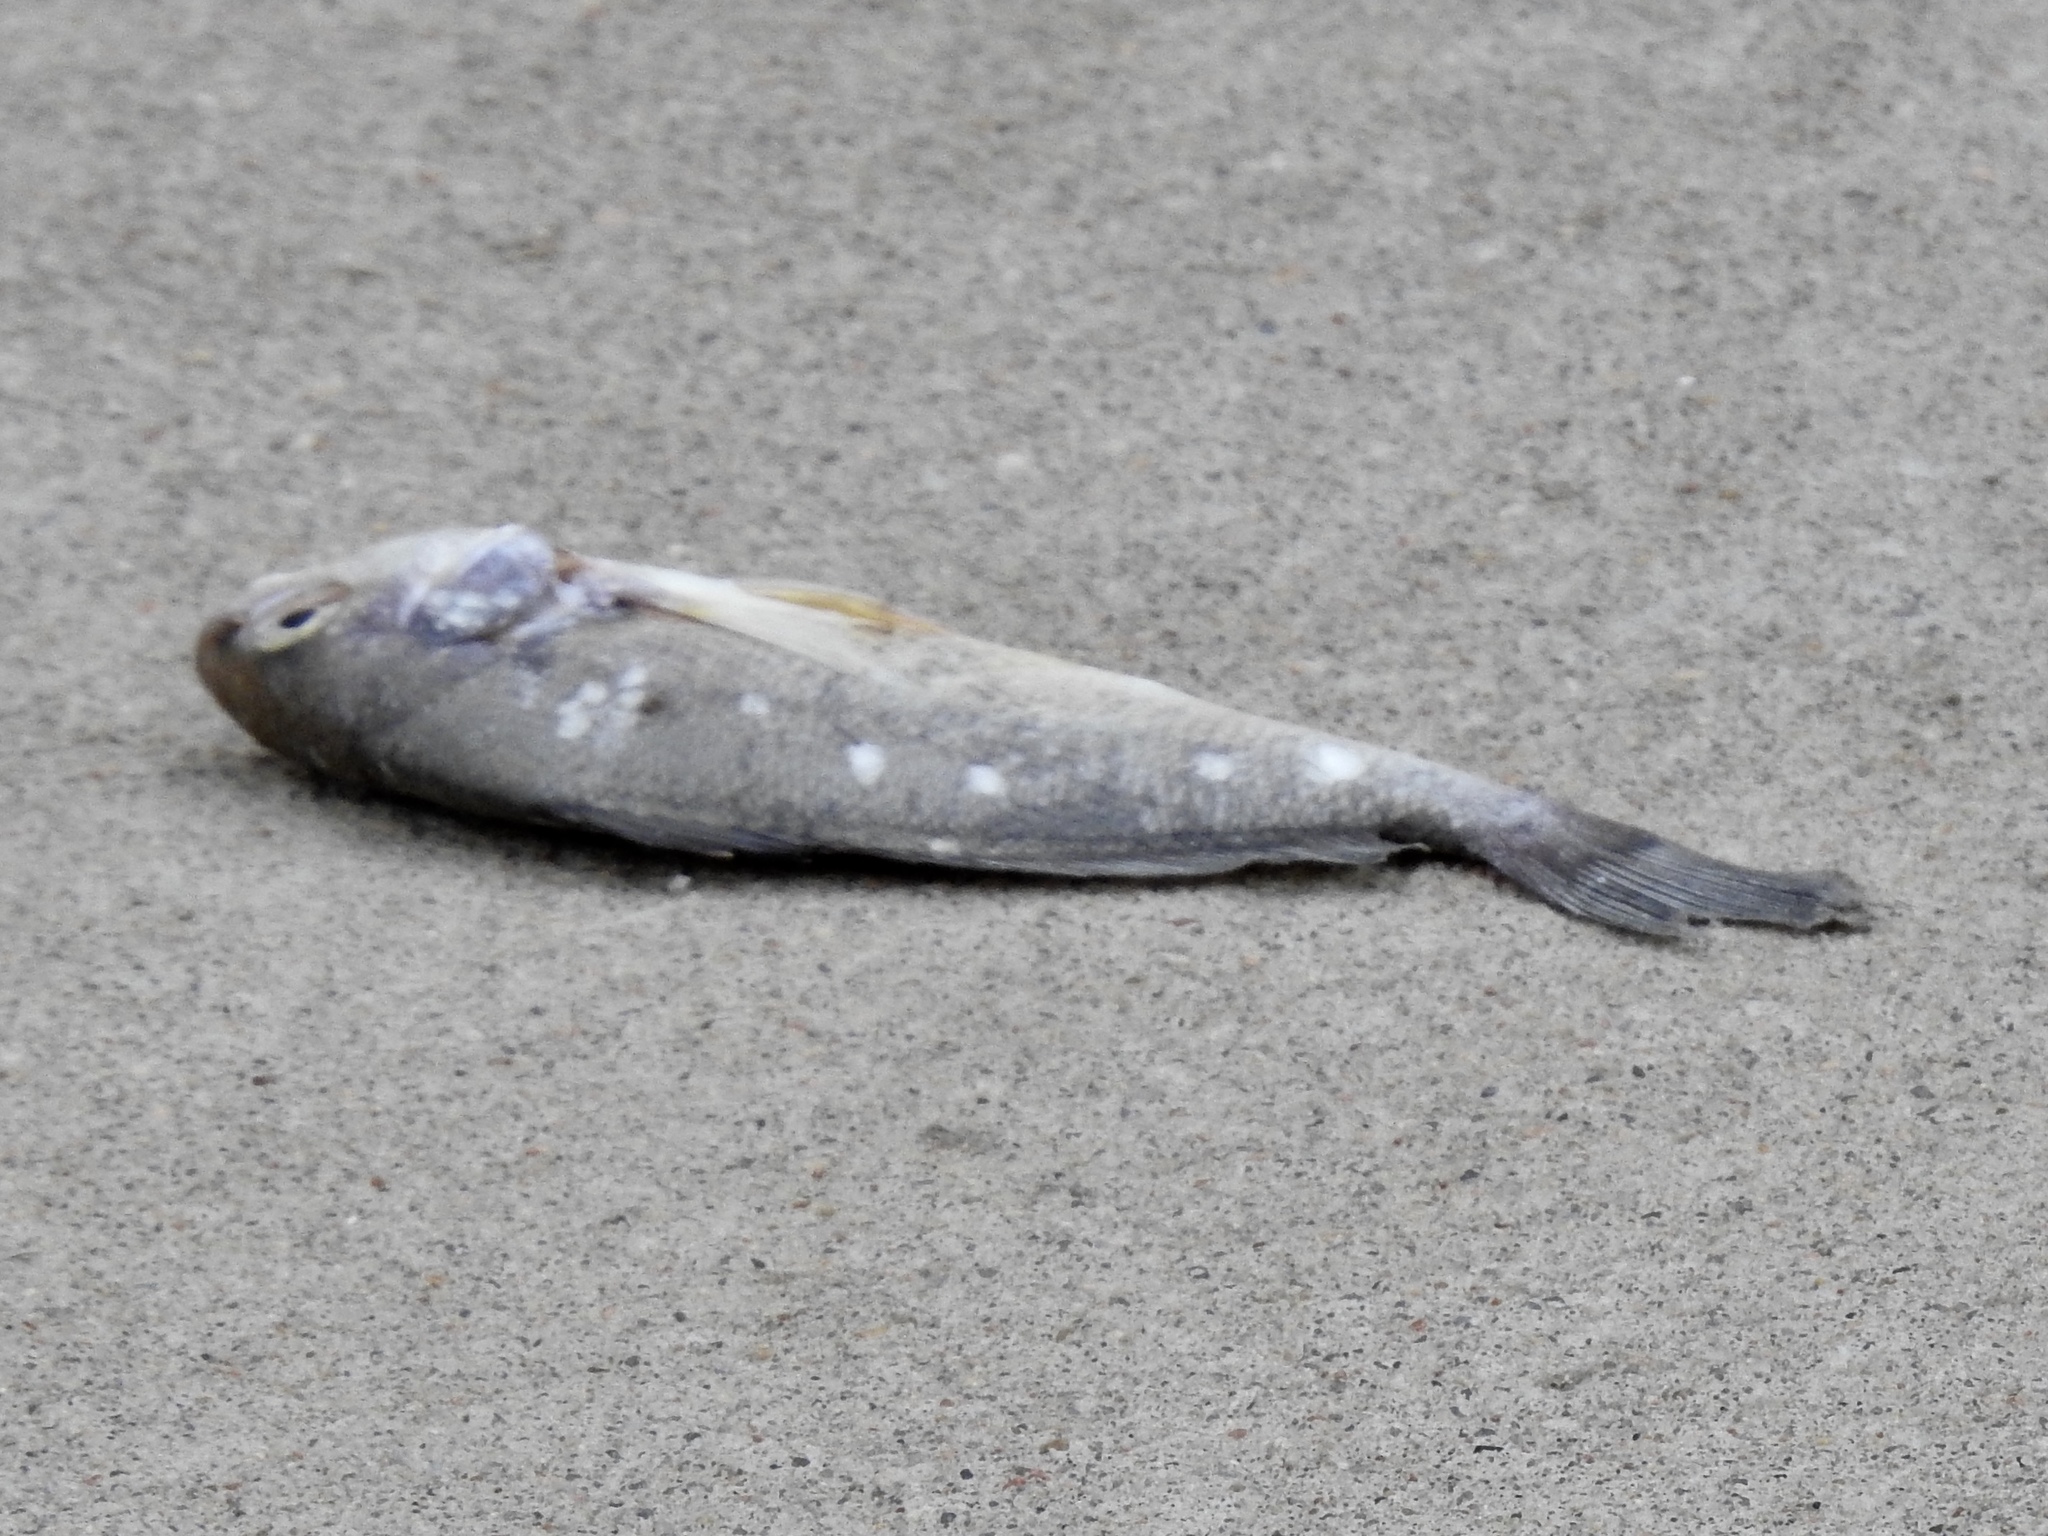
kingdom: Animalia
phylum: Chordata
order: Perciformes
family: Sciaenidae
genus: Aplodinotus
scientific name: Aplodinotus grunniens
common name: Freshwater drum
